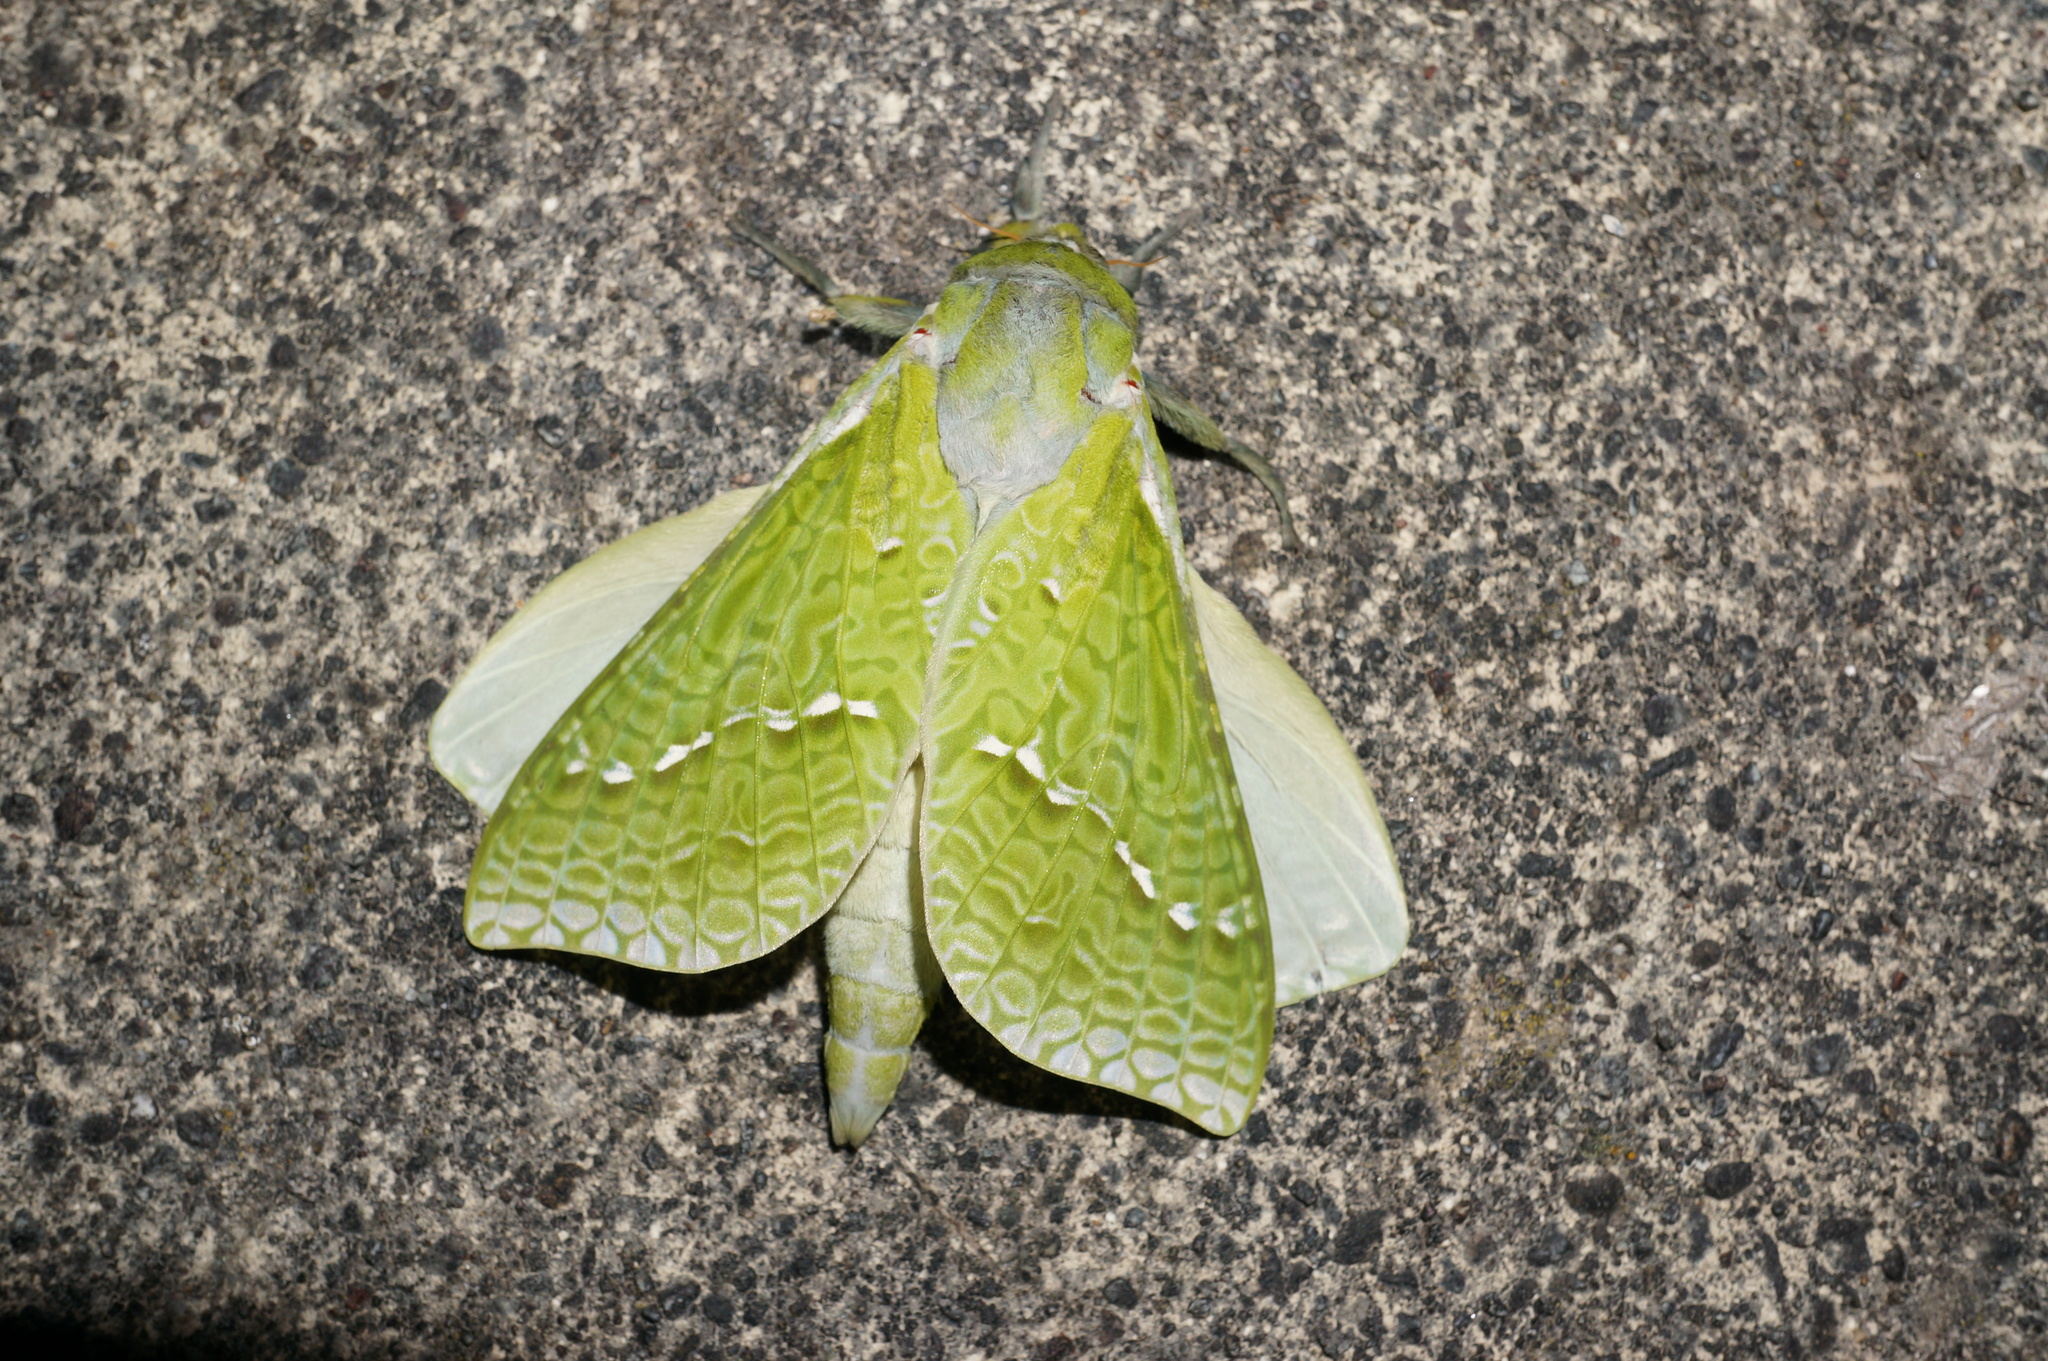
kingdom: Animalia
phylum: Arthropoda
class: Insecta
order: Lepidoptera
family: Hepialidae
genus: Aenetus
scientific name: Aenetus virescens
